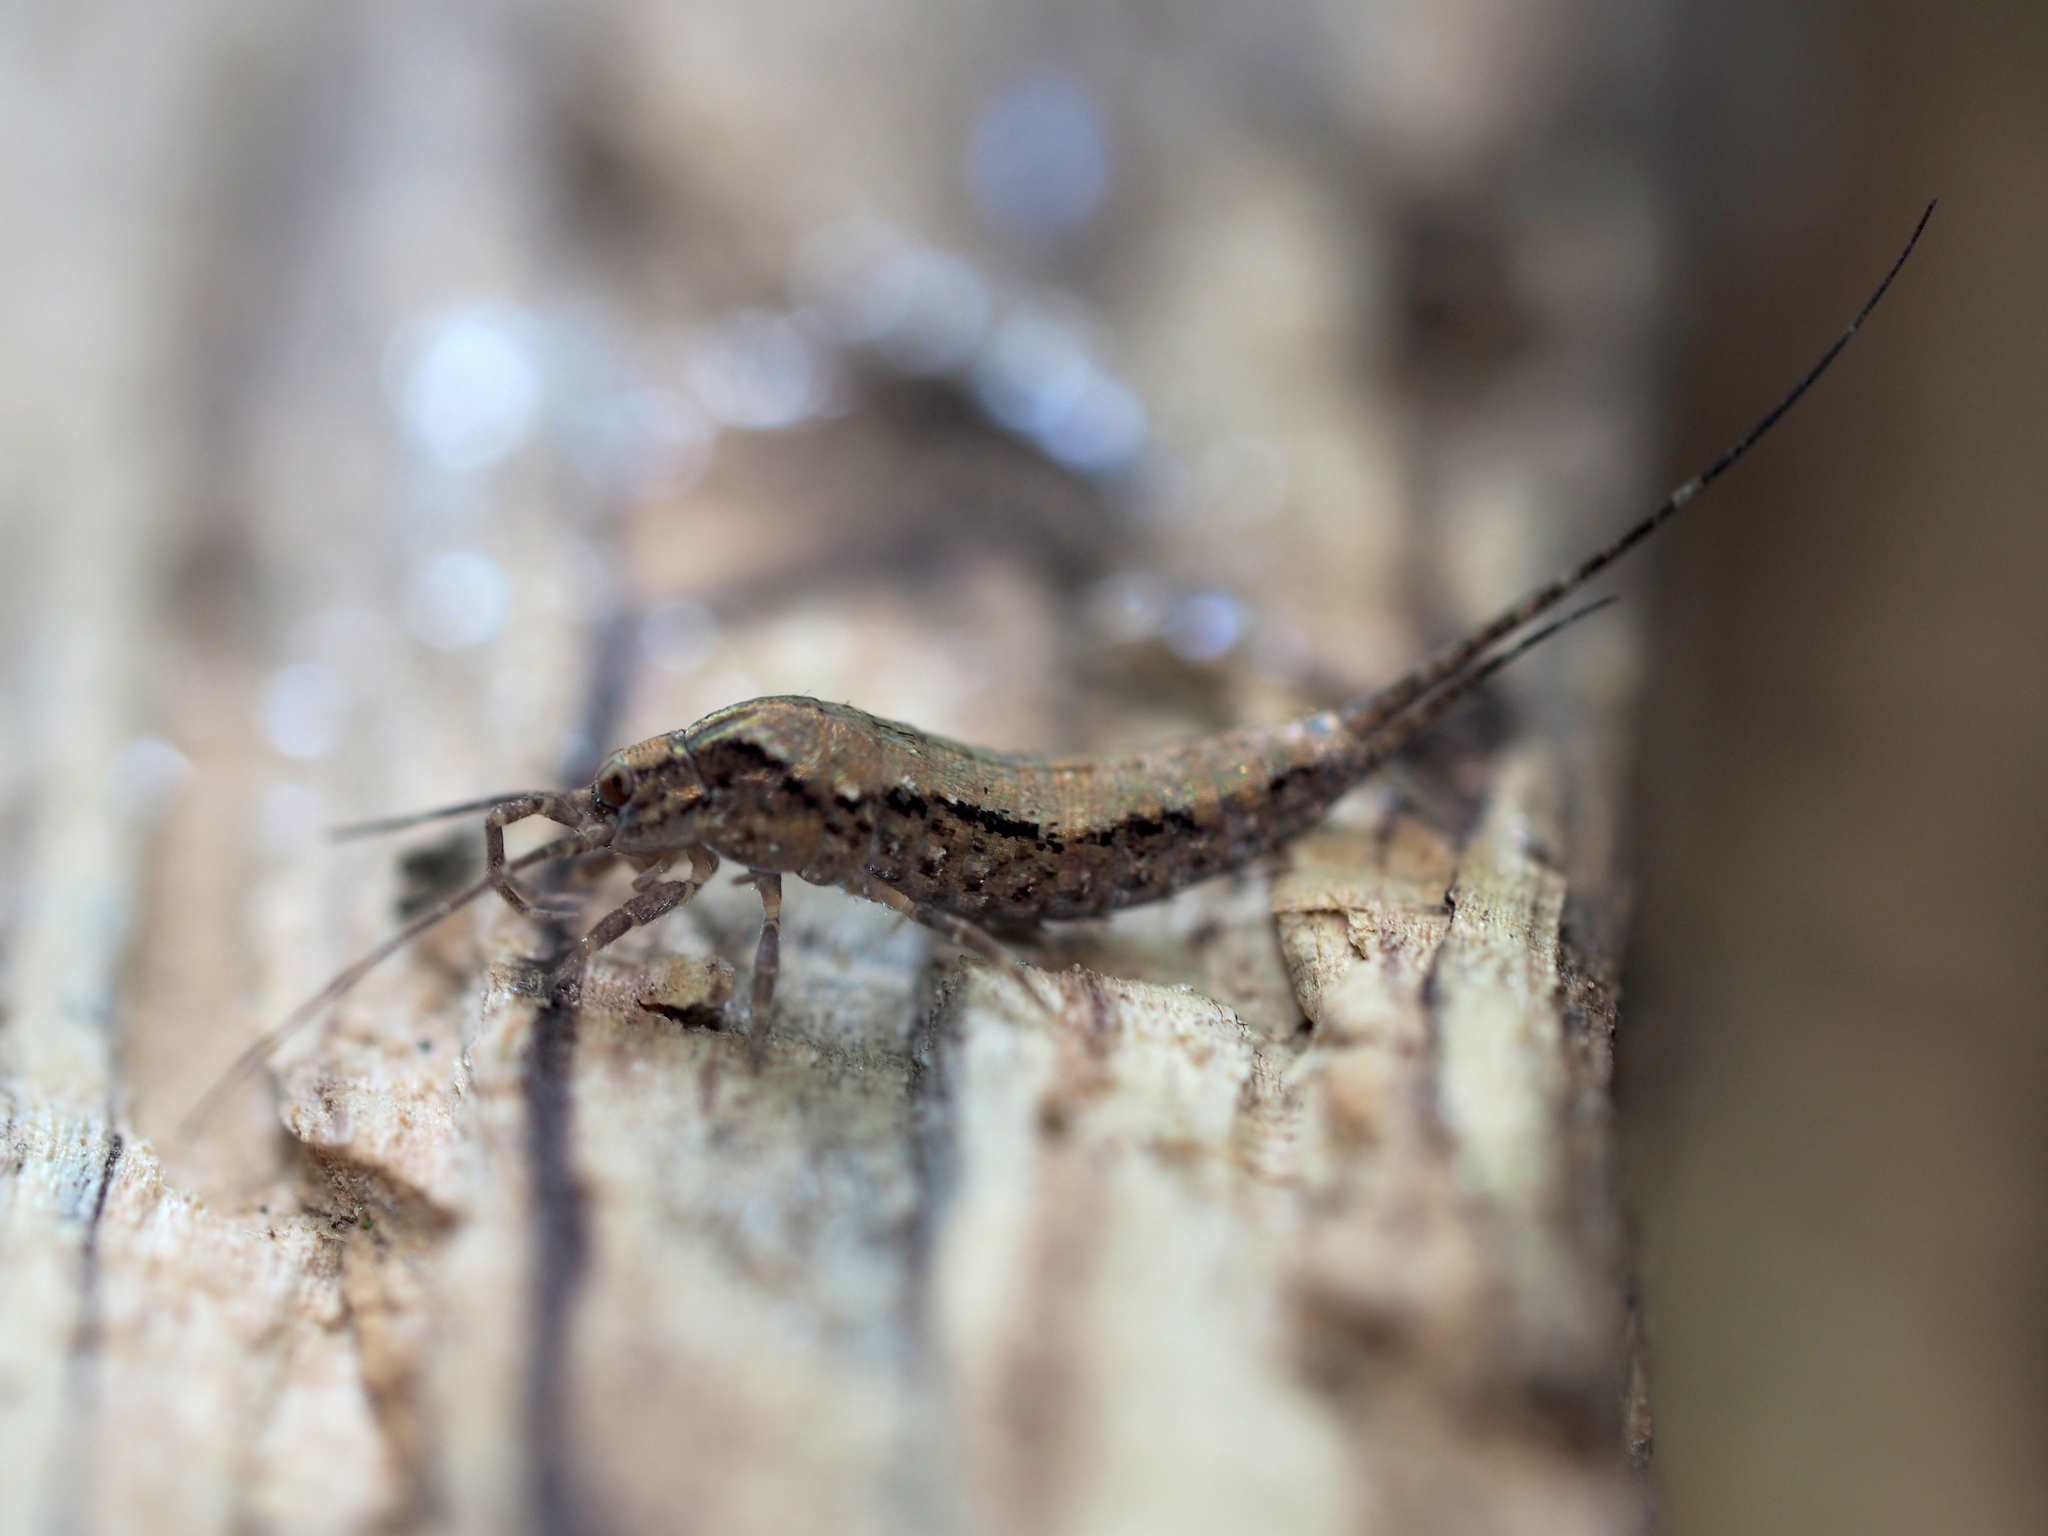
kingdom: Animalia
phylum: Arthropoda
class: Insecta
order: Archaeognatha
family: Machilidae
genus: Lepismachilis
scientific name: Lepismachilis rozsypali
